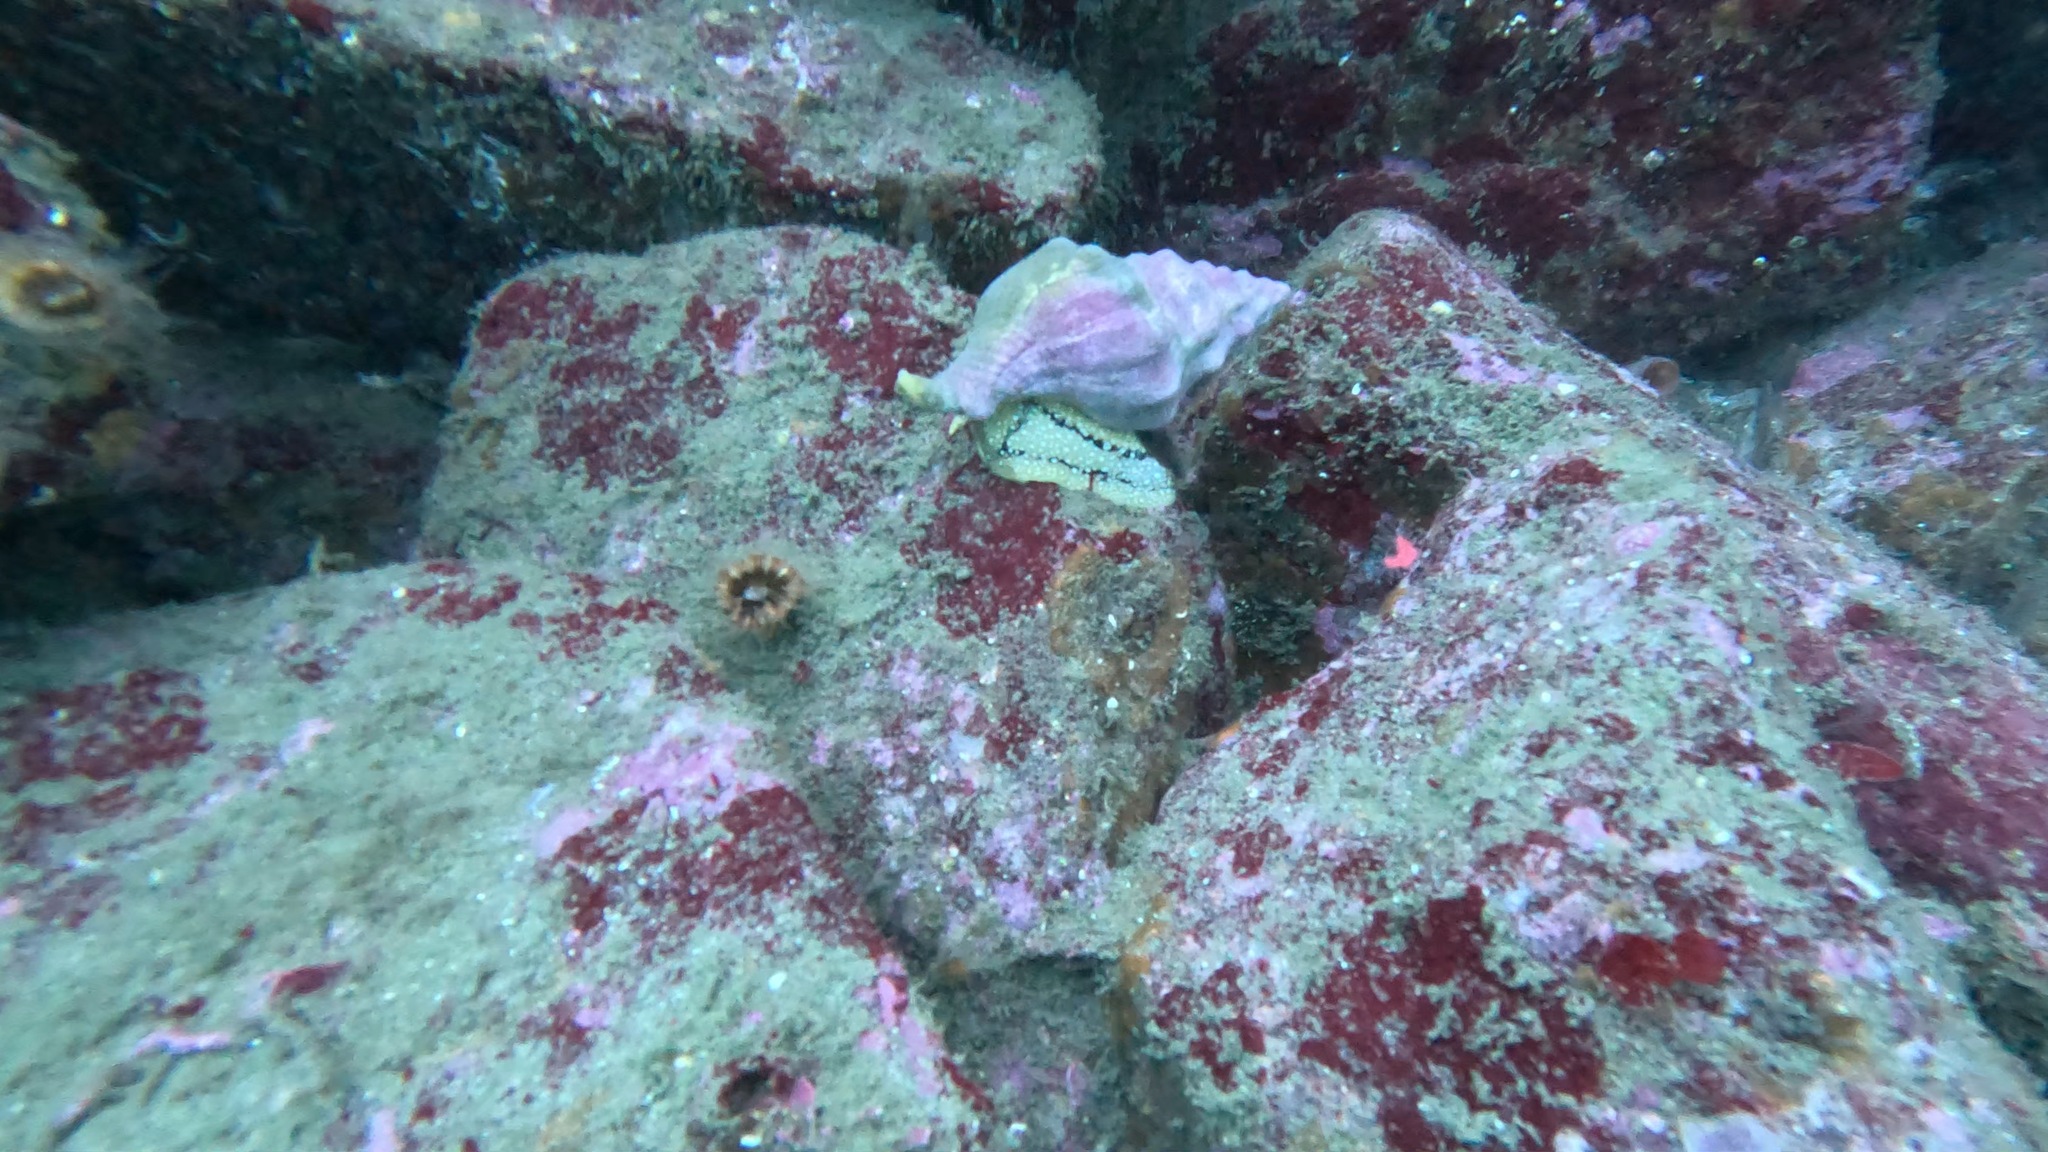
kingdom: Animalia
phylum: Mollusca
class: Gastropoda
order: Neogastropoda
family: Austrosiphonidae
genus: Kelletia
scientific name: Kelletia kelletii
